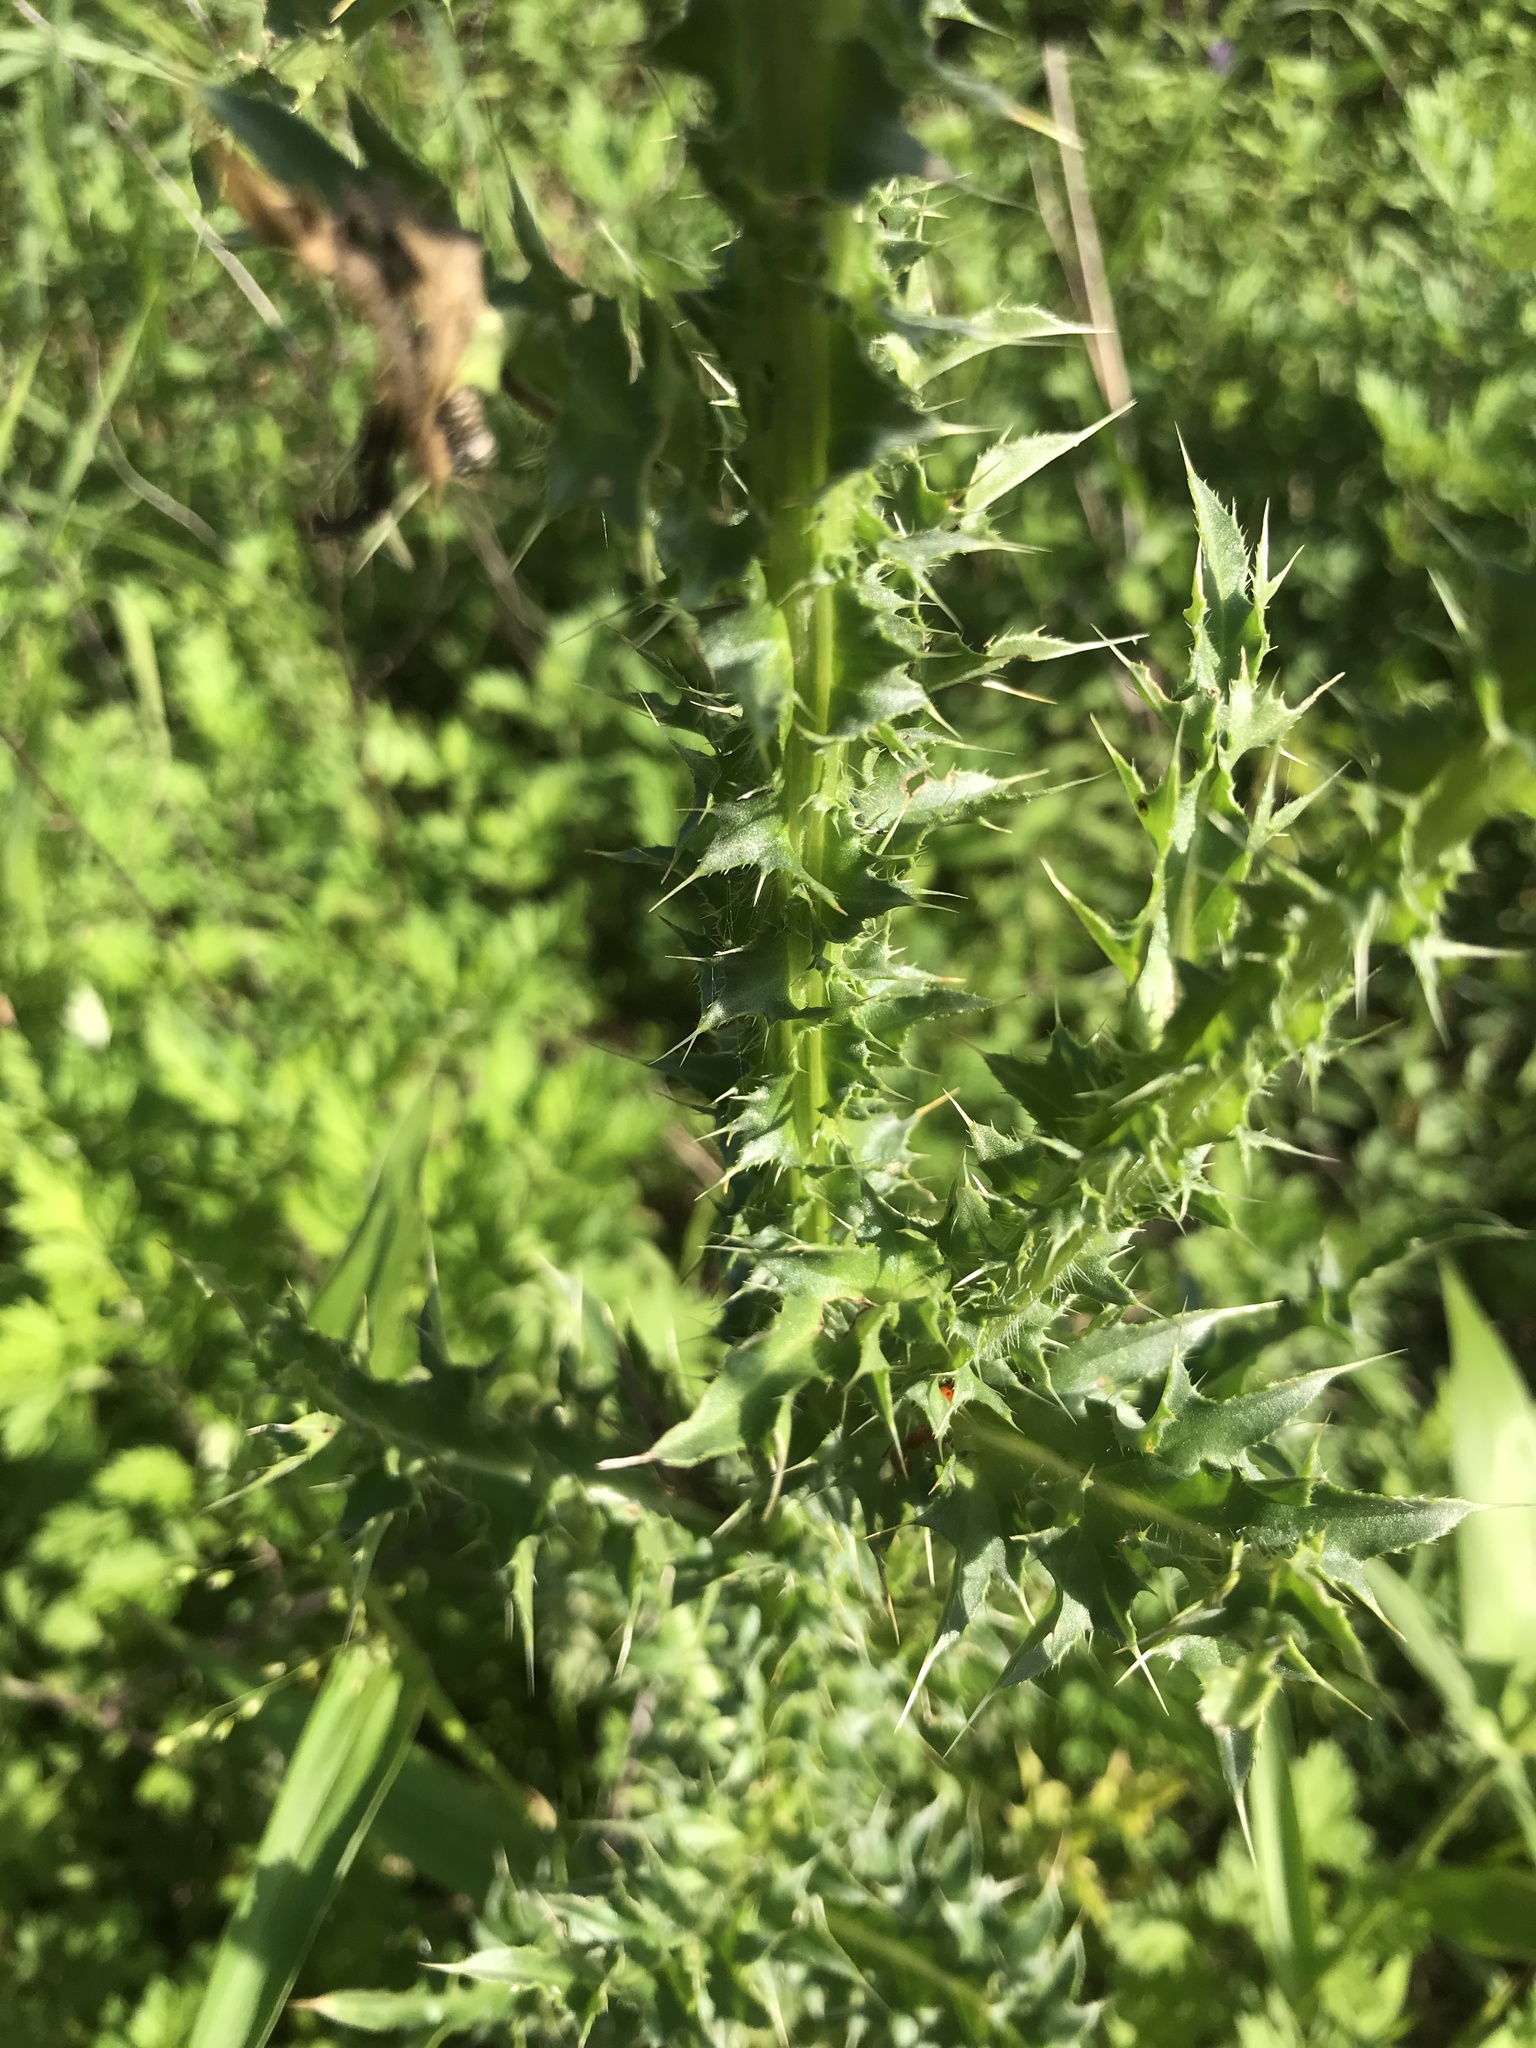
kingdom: Plantae
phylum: Tracheophyta
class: Magnoliopsida
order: Asterales
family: Asteraceae
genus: Carduus
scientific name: Carduus nutans
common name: Musk thistle
